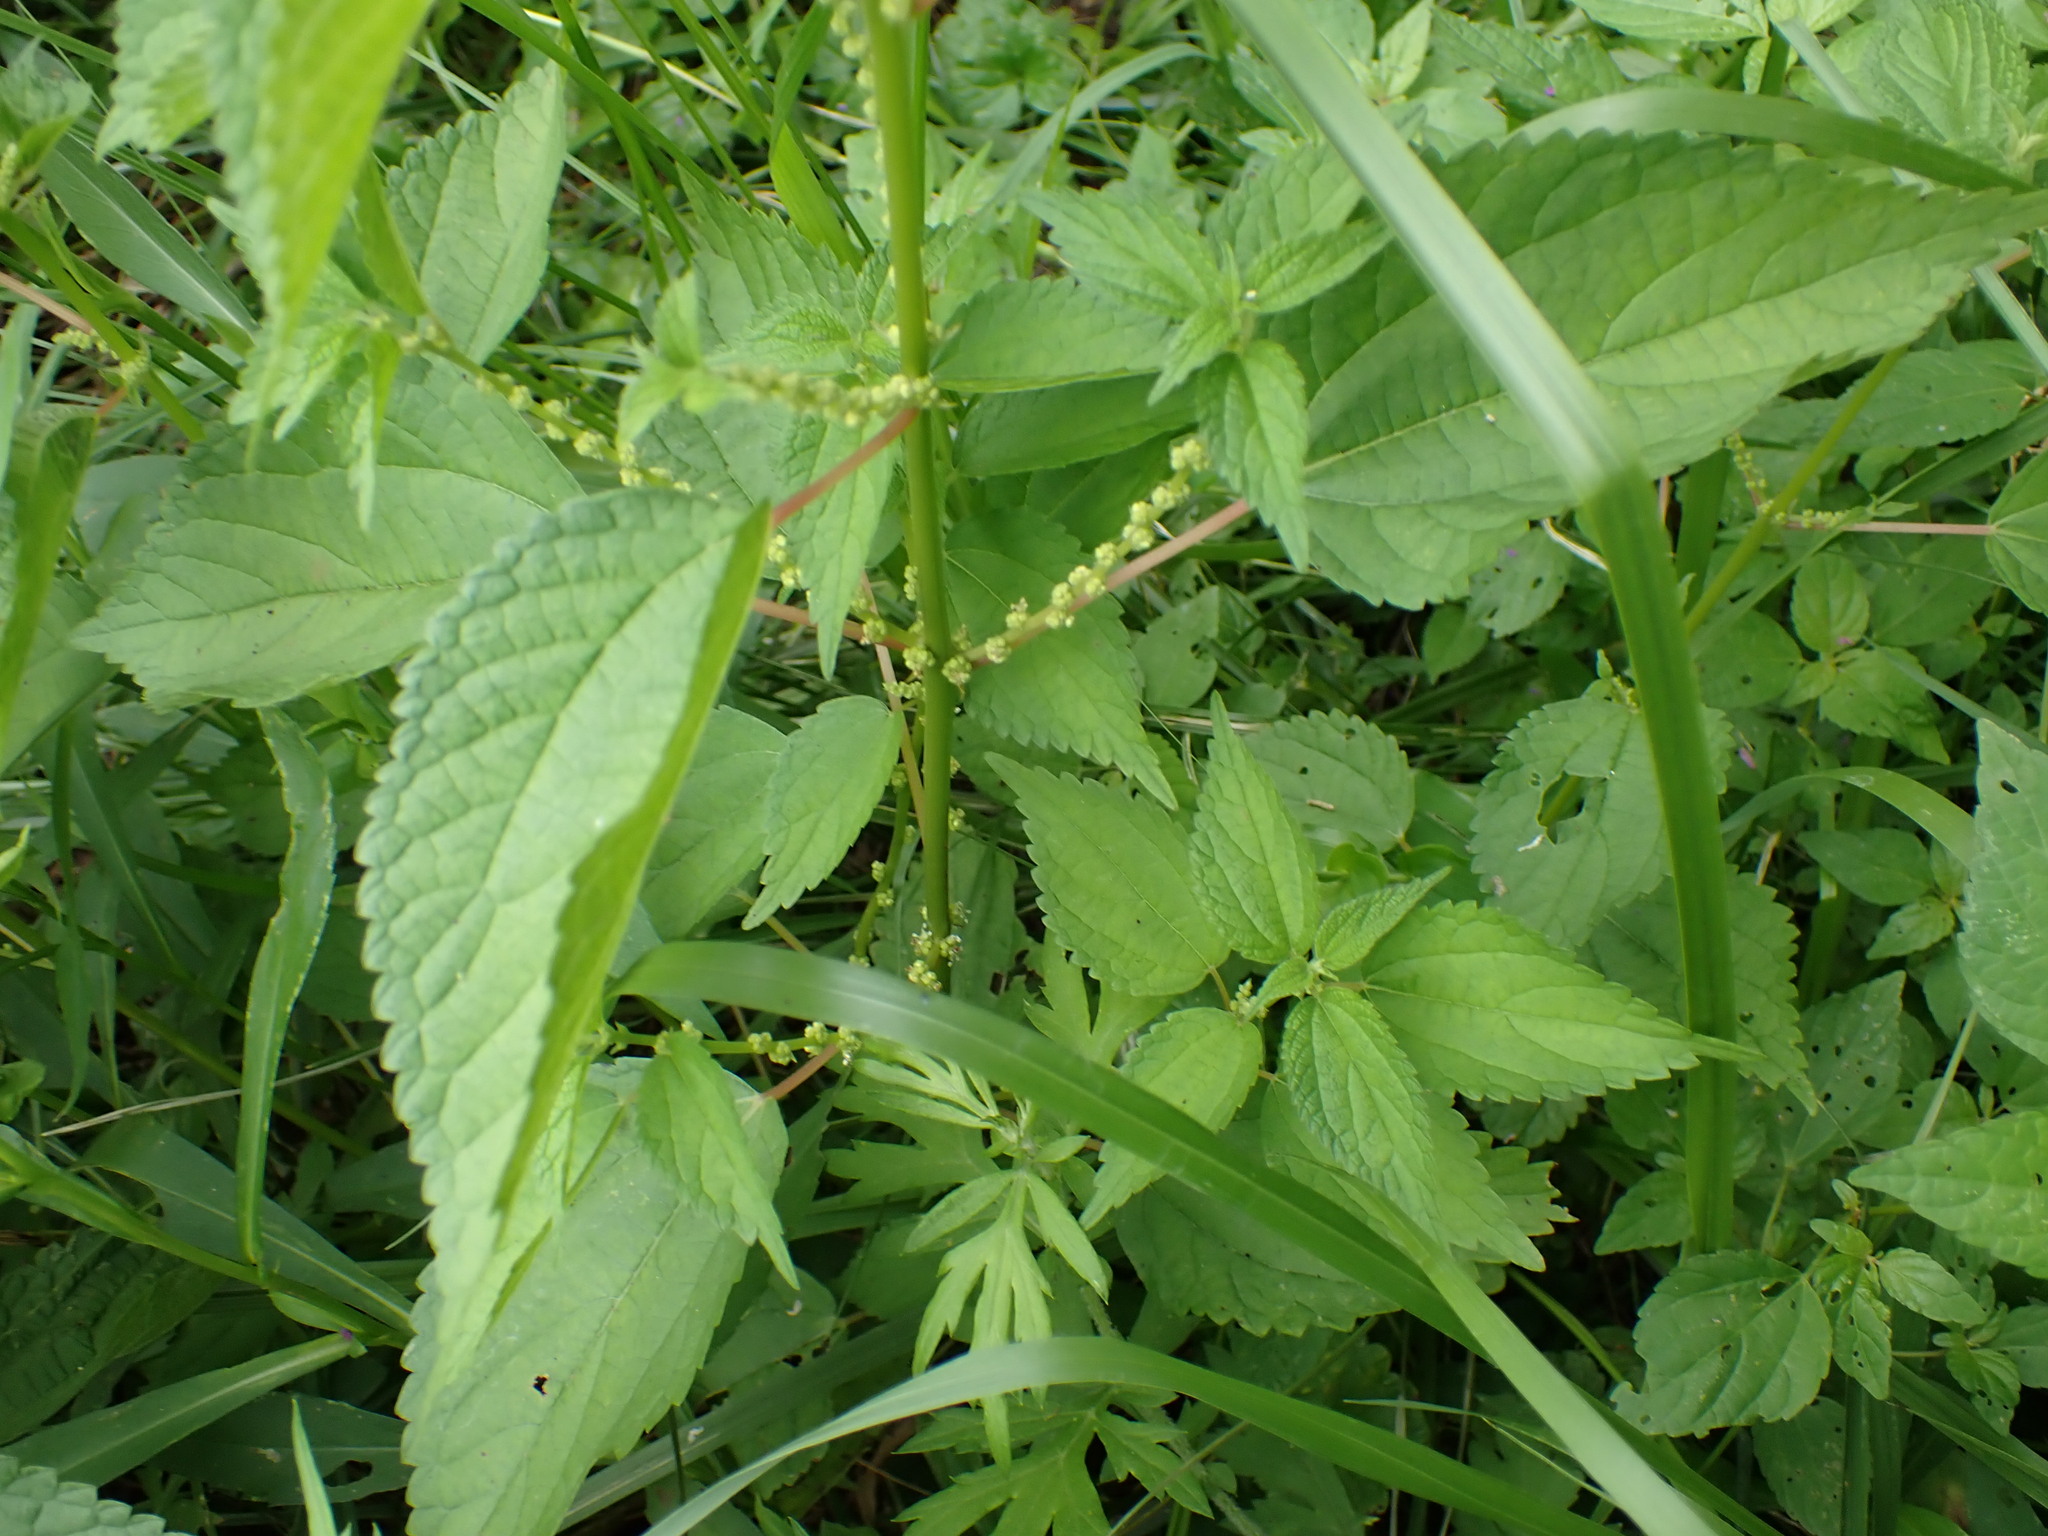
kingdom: Plantae
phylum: Tracheophyta
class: Magnoliopsida
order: Rosales
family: Urticaceae
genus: Boehmeria
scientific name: Boehmeria cylindrica
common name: Bog-hemp
